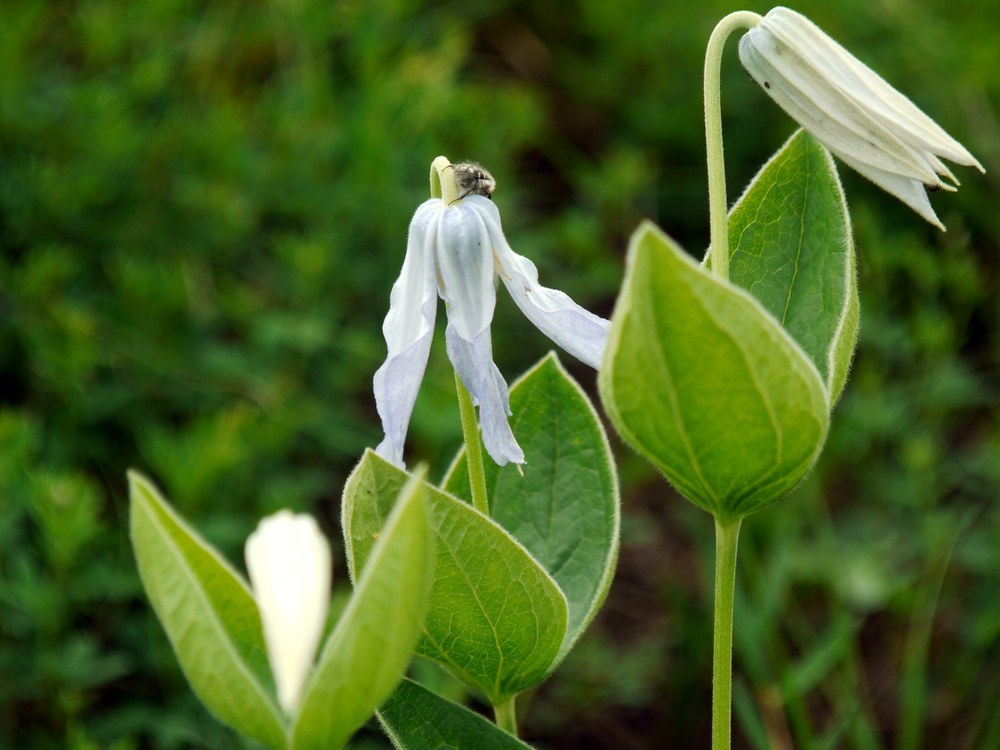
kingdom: Plantae
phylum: Tracheophyta
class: Magnoliopsida
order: Ranunculales
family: Ranunculaceae
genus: Clematis
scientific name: Clematis integrifolia
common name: Solitary clematis
